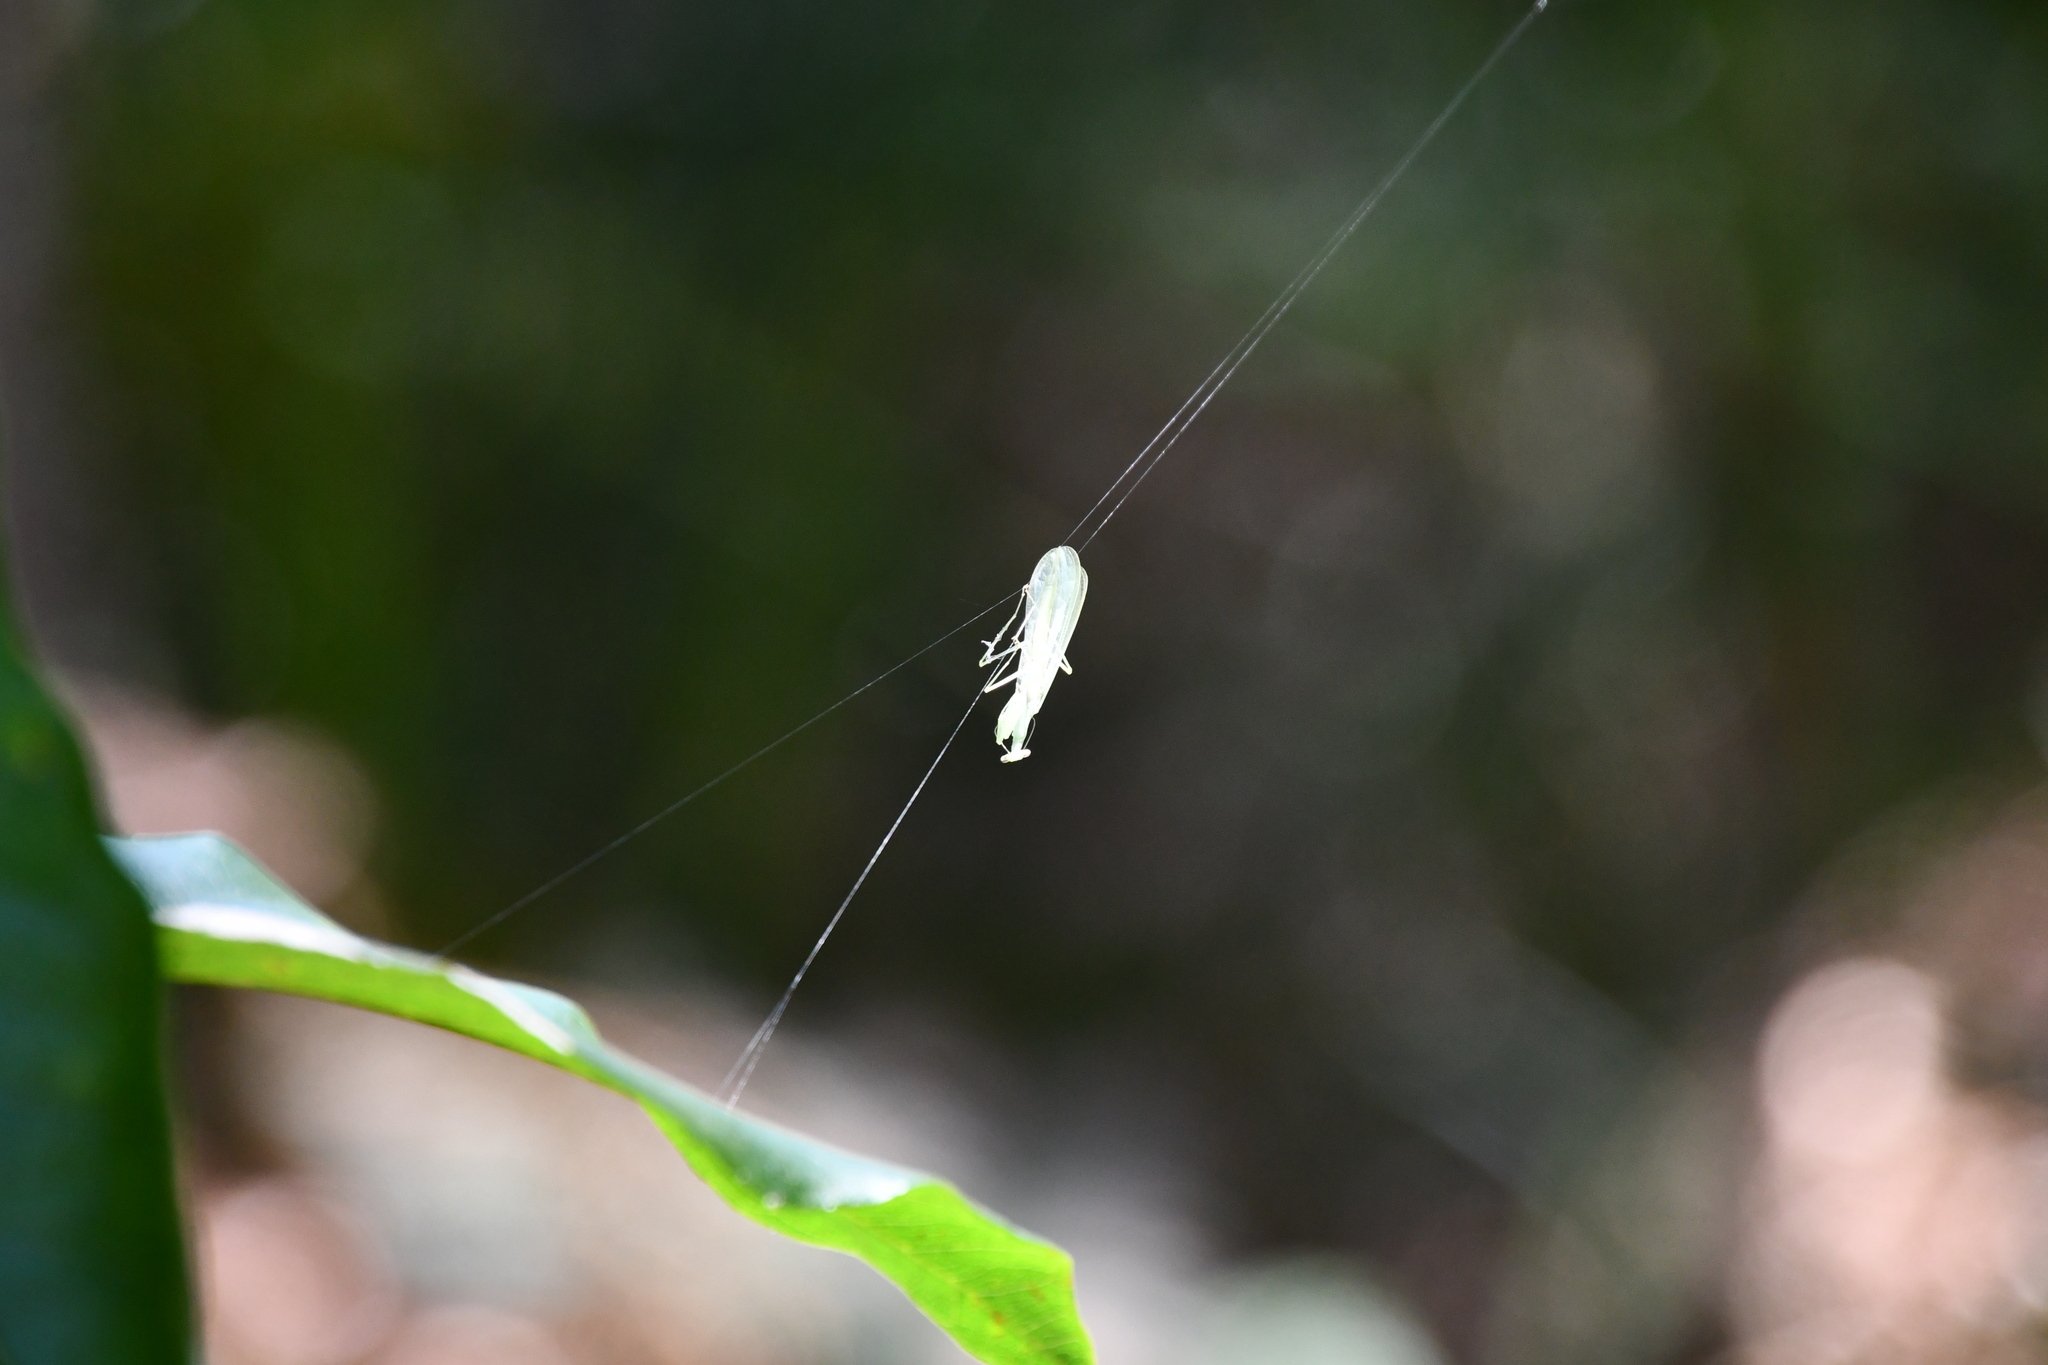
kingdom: Animalia
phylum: Arthropoda
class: Insecta
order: Mantodea
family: Nanomantidae
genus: Kongobatha
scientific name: Kongobatha diademata
